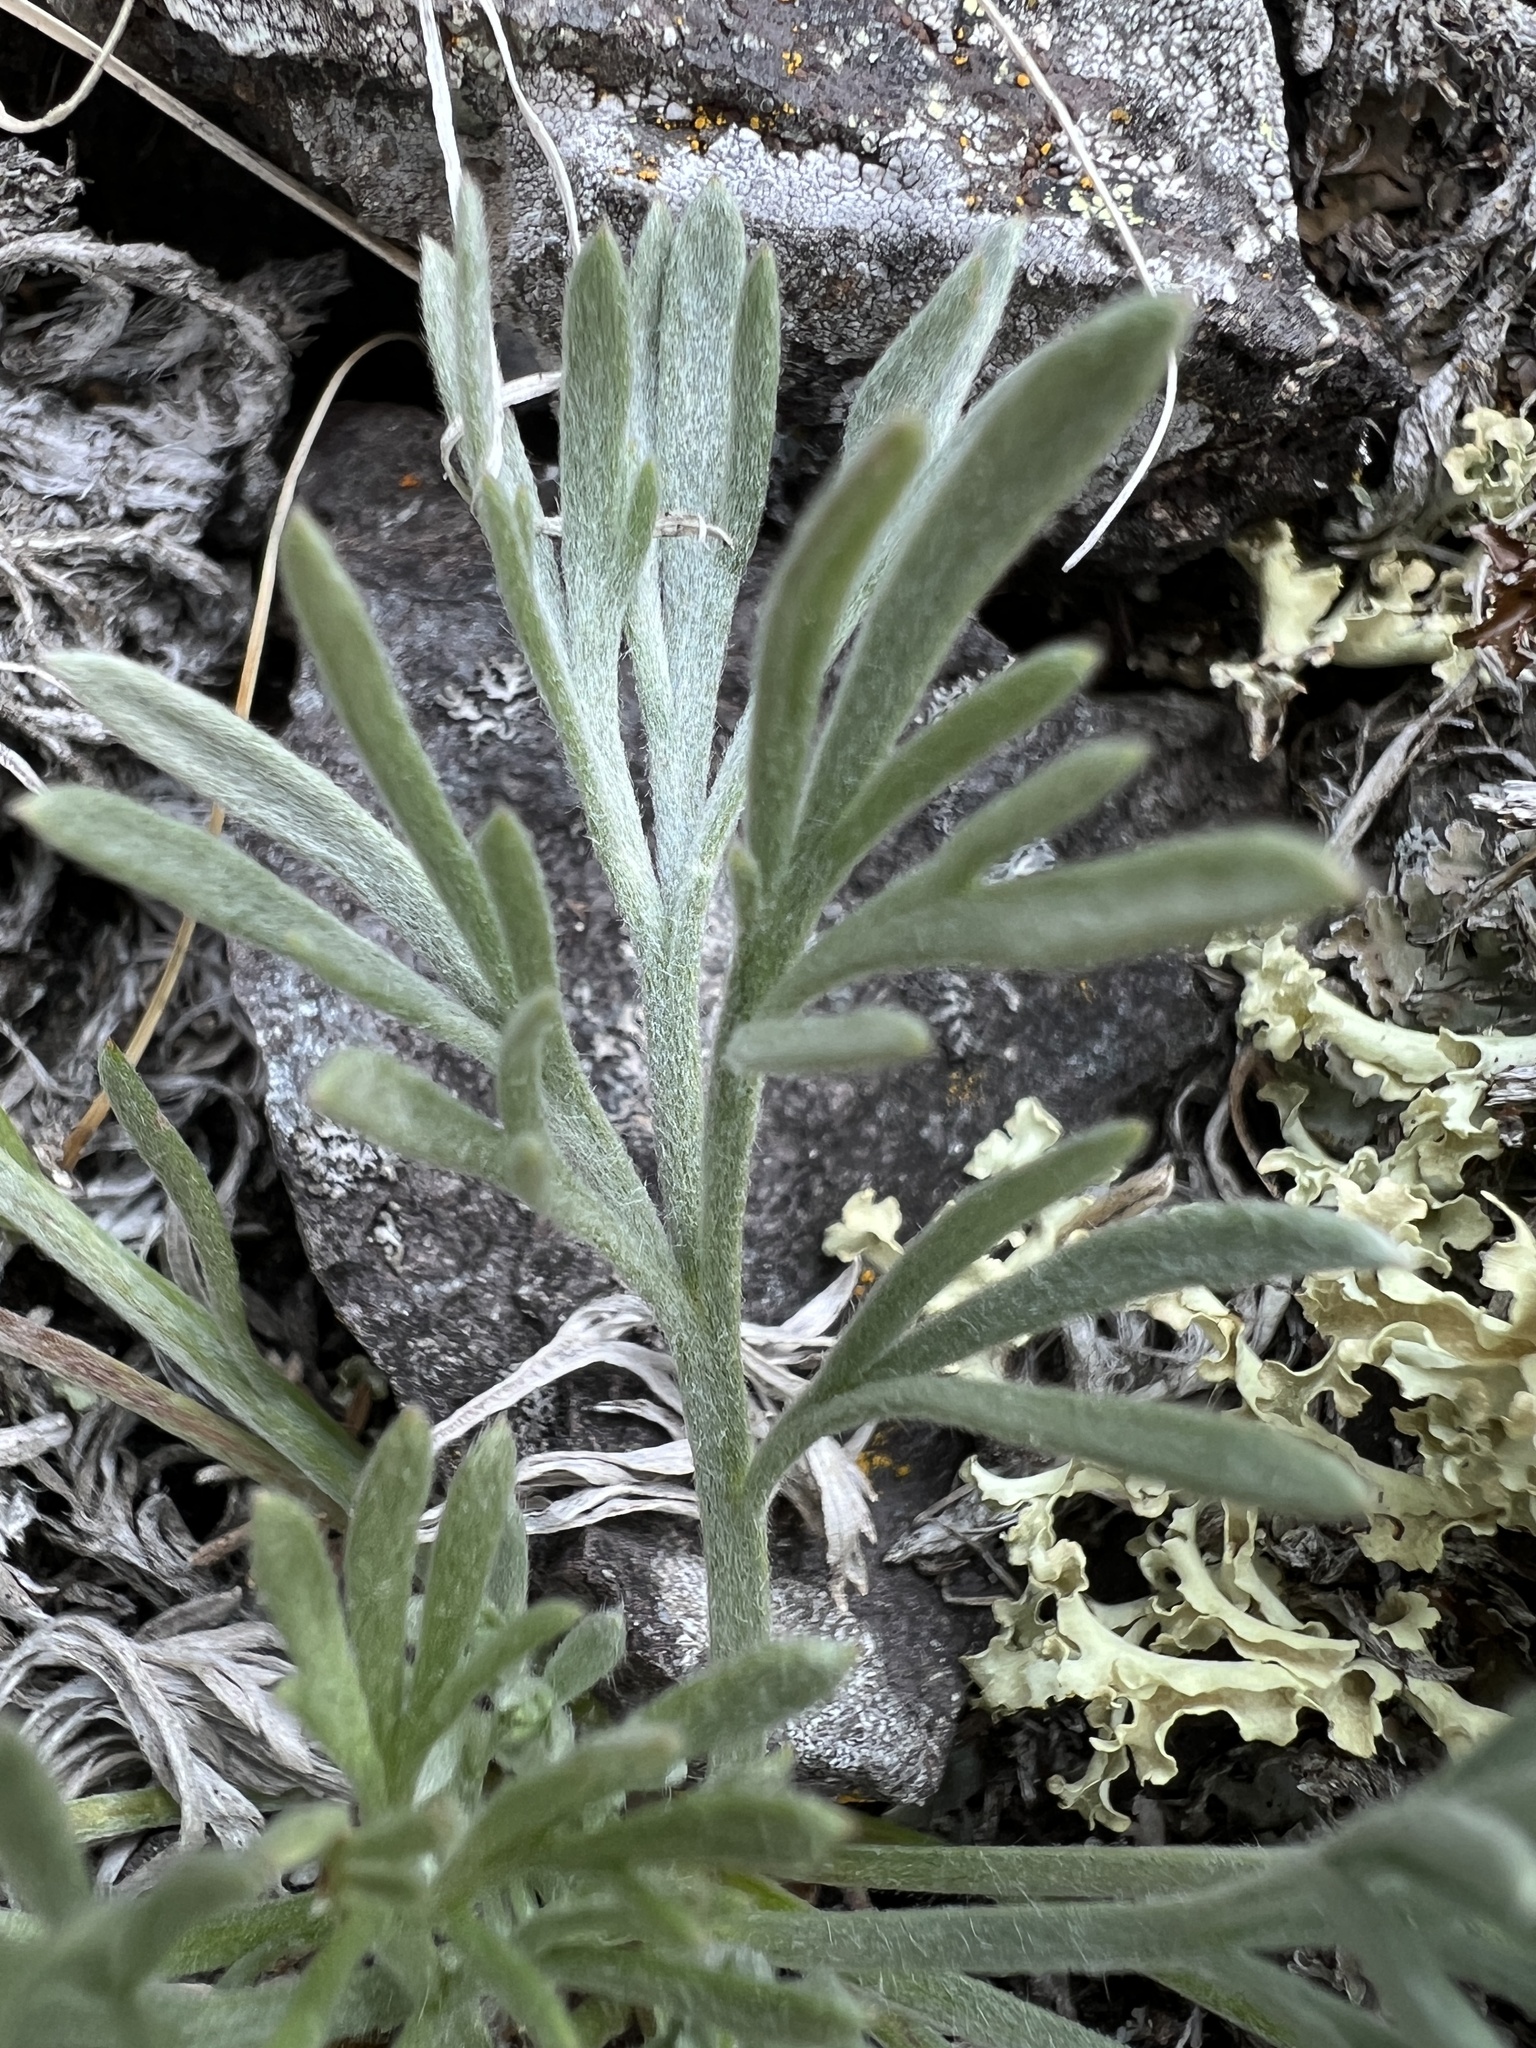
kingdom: Plantae
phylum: Tracheophyta
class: Magnoliopsida
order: Asterales
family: Asteraceae
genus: Artemisia
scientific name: Artemisia campestris
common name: Field wormwood
